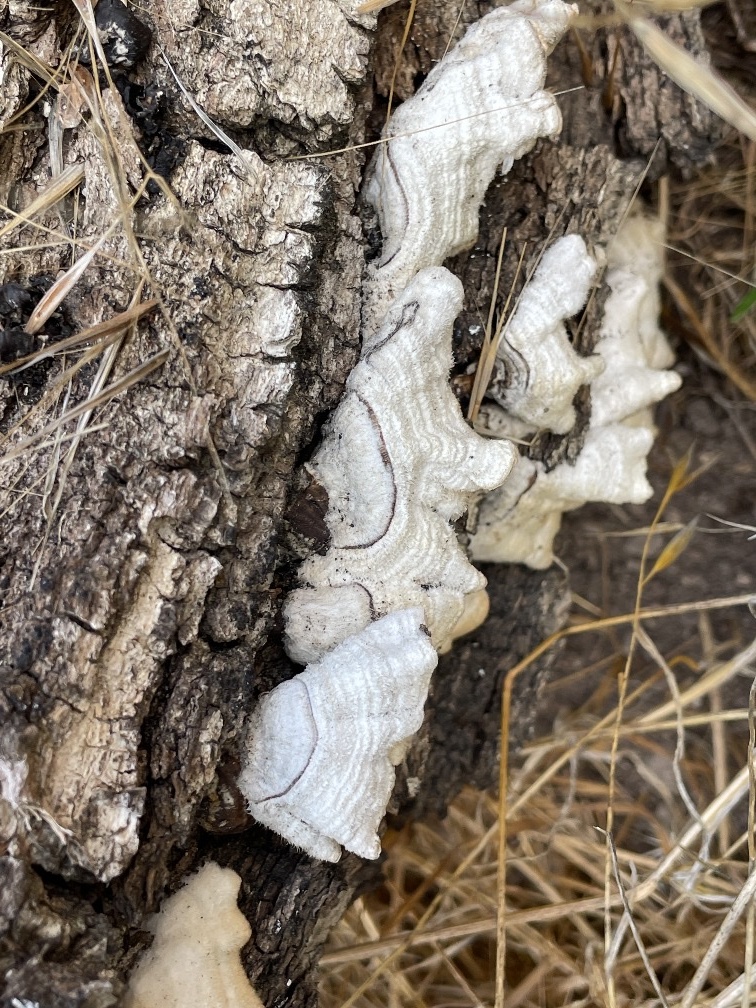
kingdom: Fungi
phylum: Basidiomycota
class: Agaricomycetes
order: Russulales
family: Stereaceae
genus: Stereum
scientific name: Stereum hirsutum
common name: Hairy curtain crust
